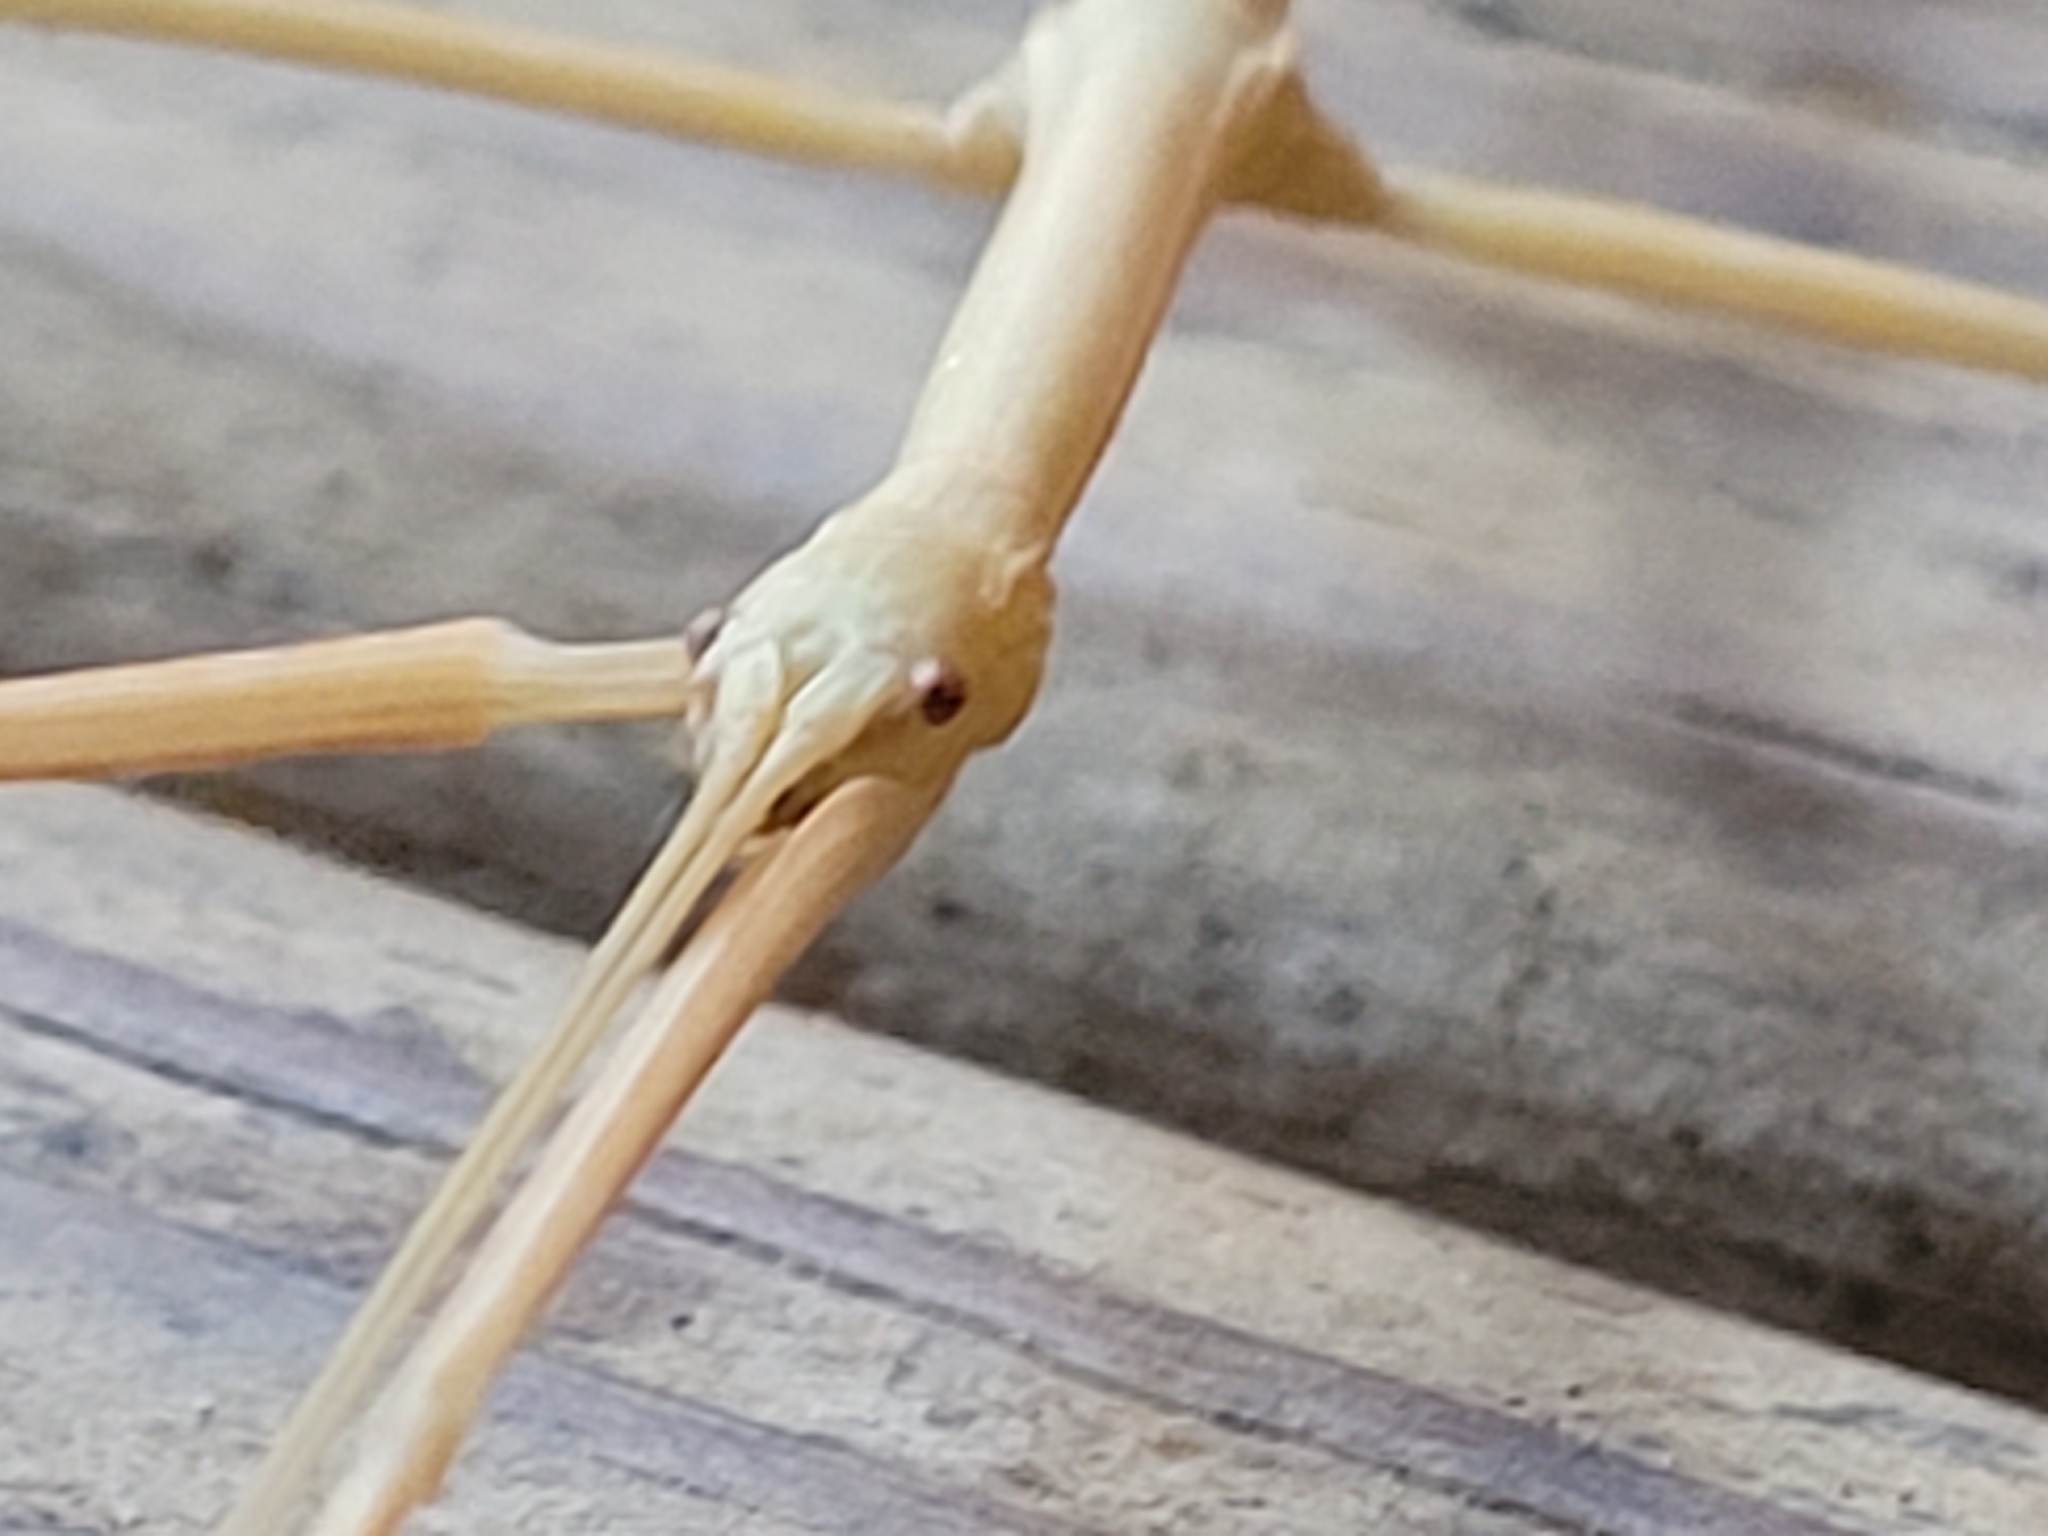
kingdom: Animalia
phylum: Arthropoda
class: Insecta
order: Phasmida
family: Diapheromeridae
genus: Diapheromera
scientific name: Diapheromera femorata
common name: Common american walkingstick
